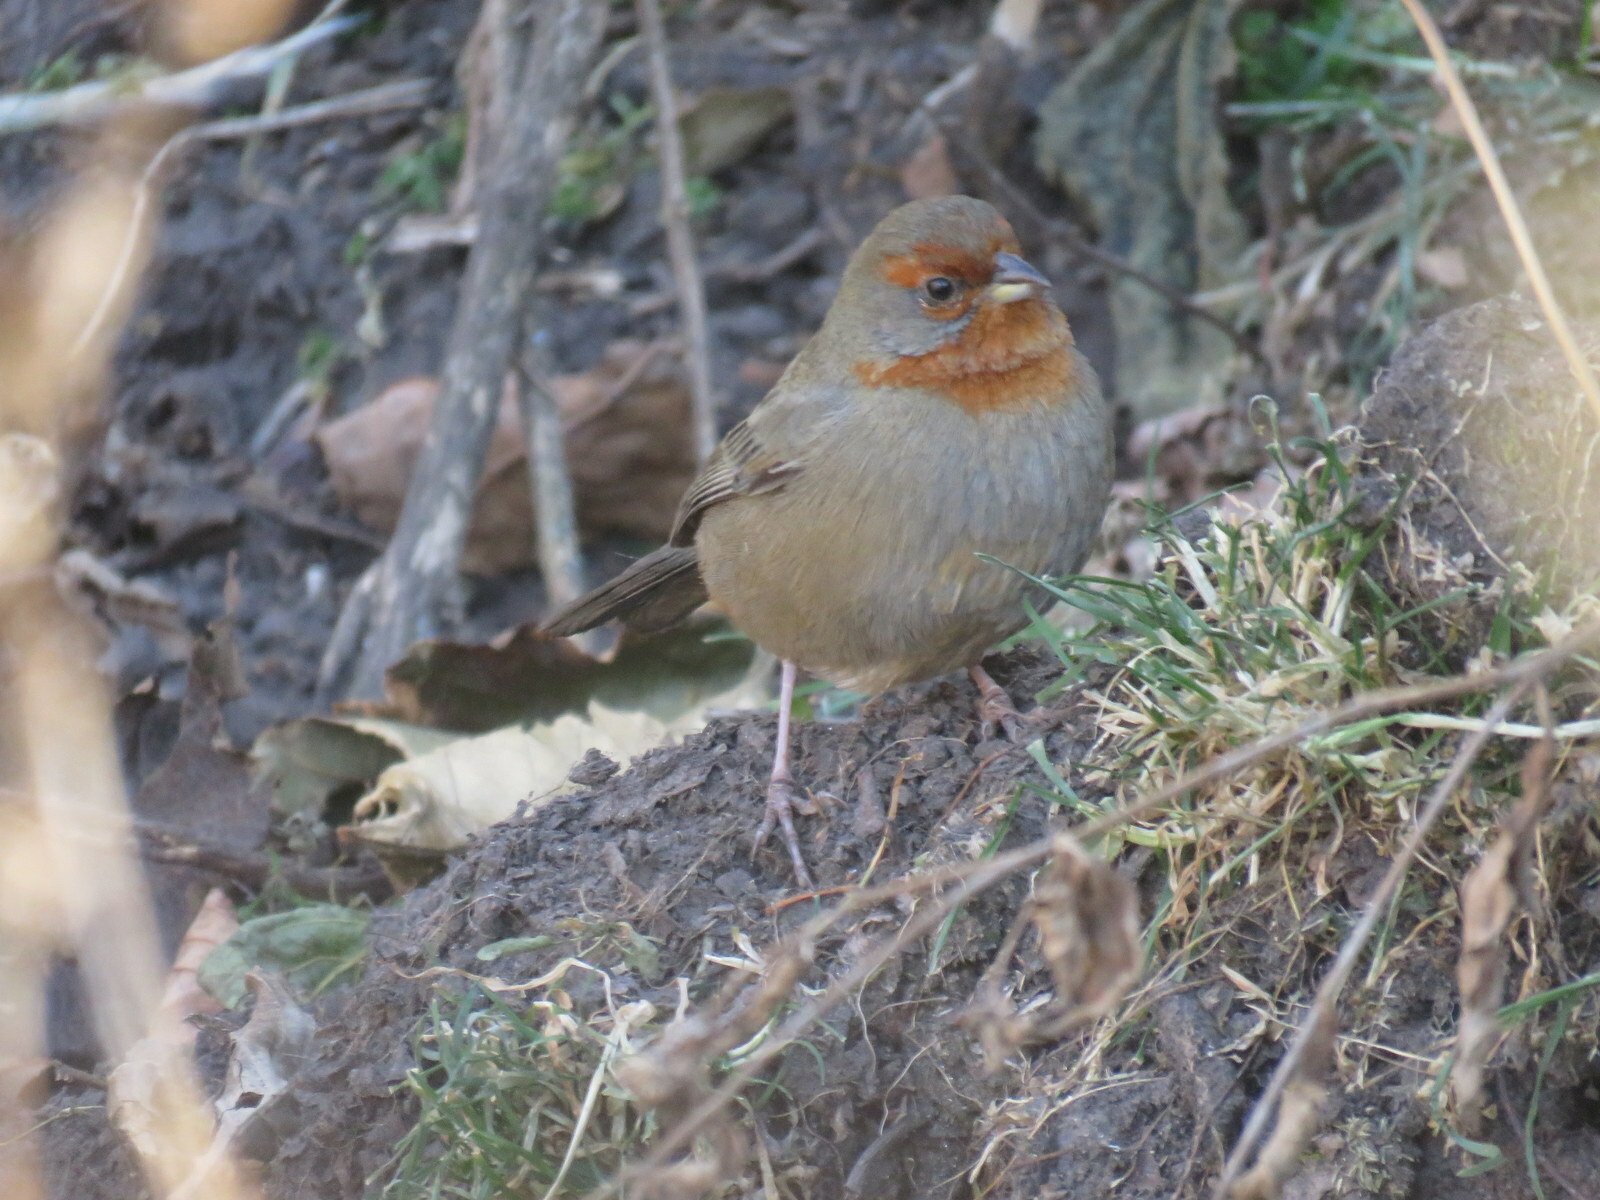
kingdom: Animalia
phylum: Chordata
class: Aves
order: Passeriformes
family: Thraupidae
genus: Poospiza
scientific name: Poospiza baeri
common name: Tucuman mountain-finch
